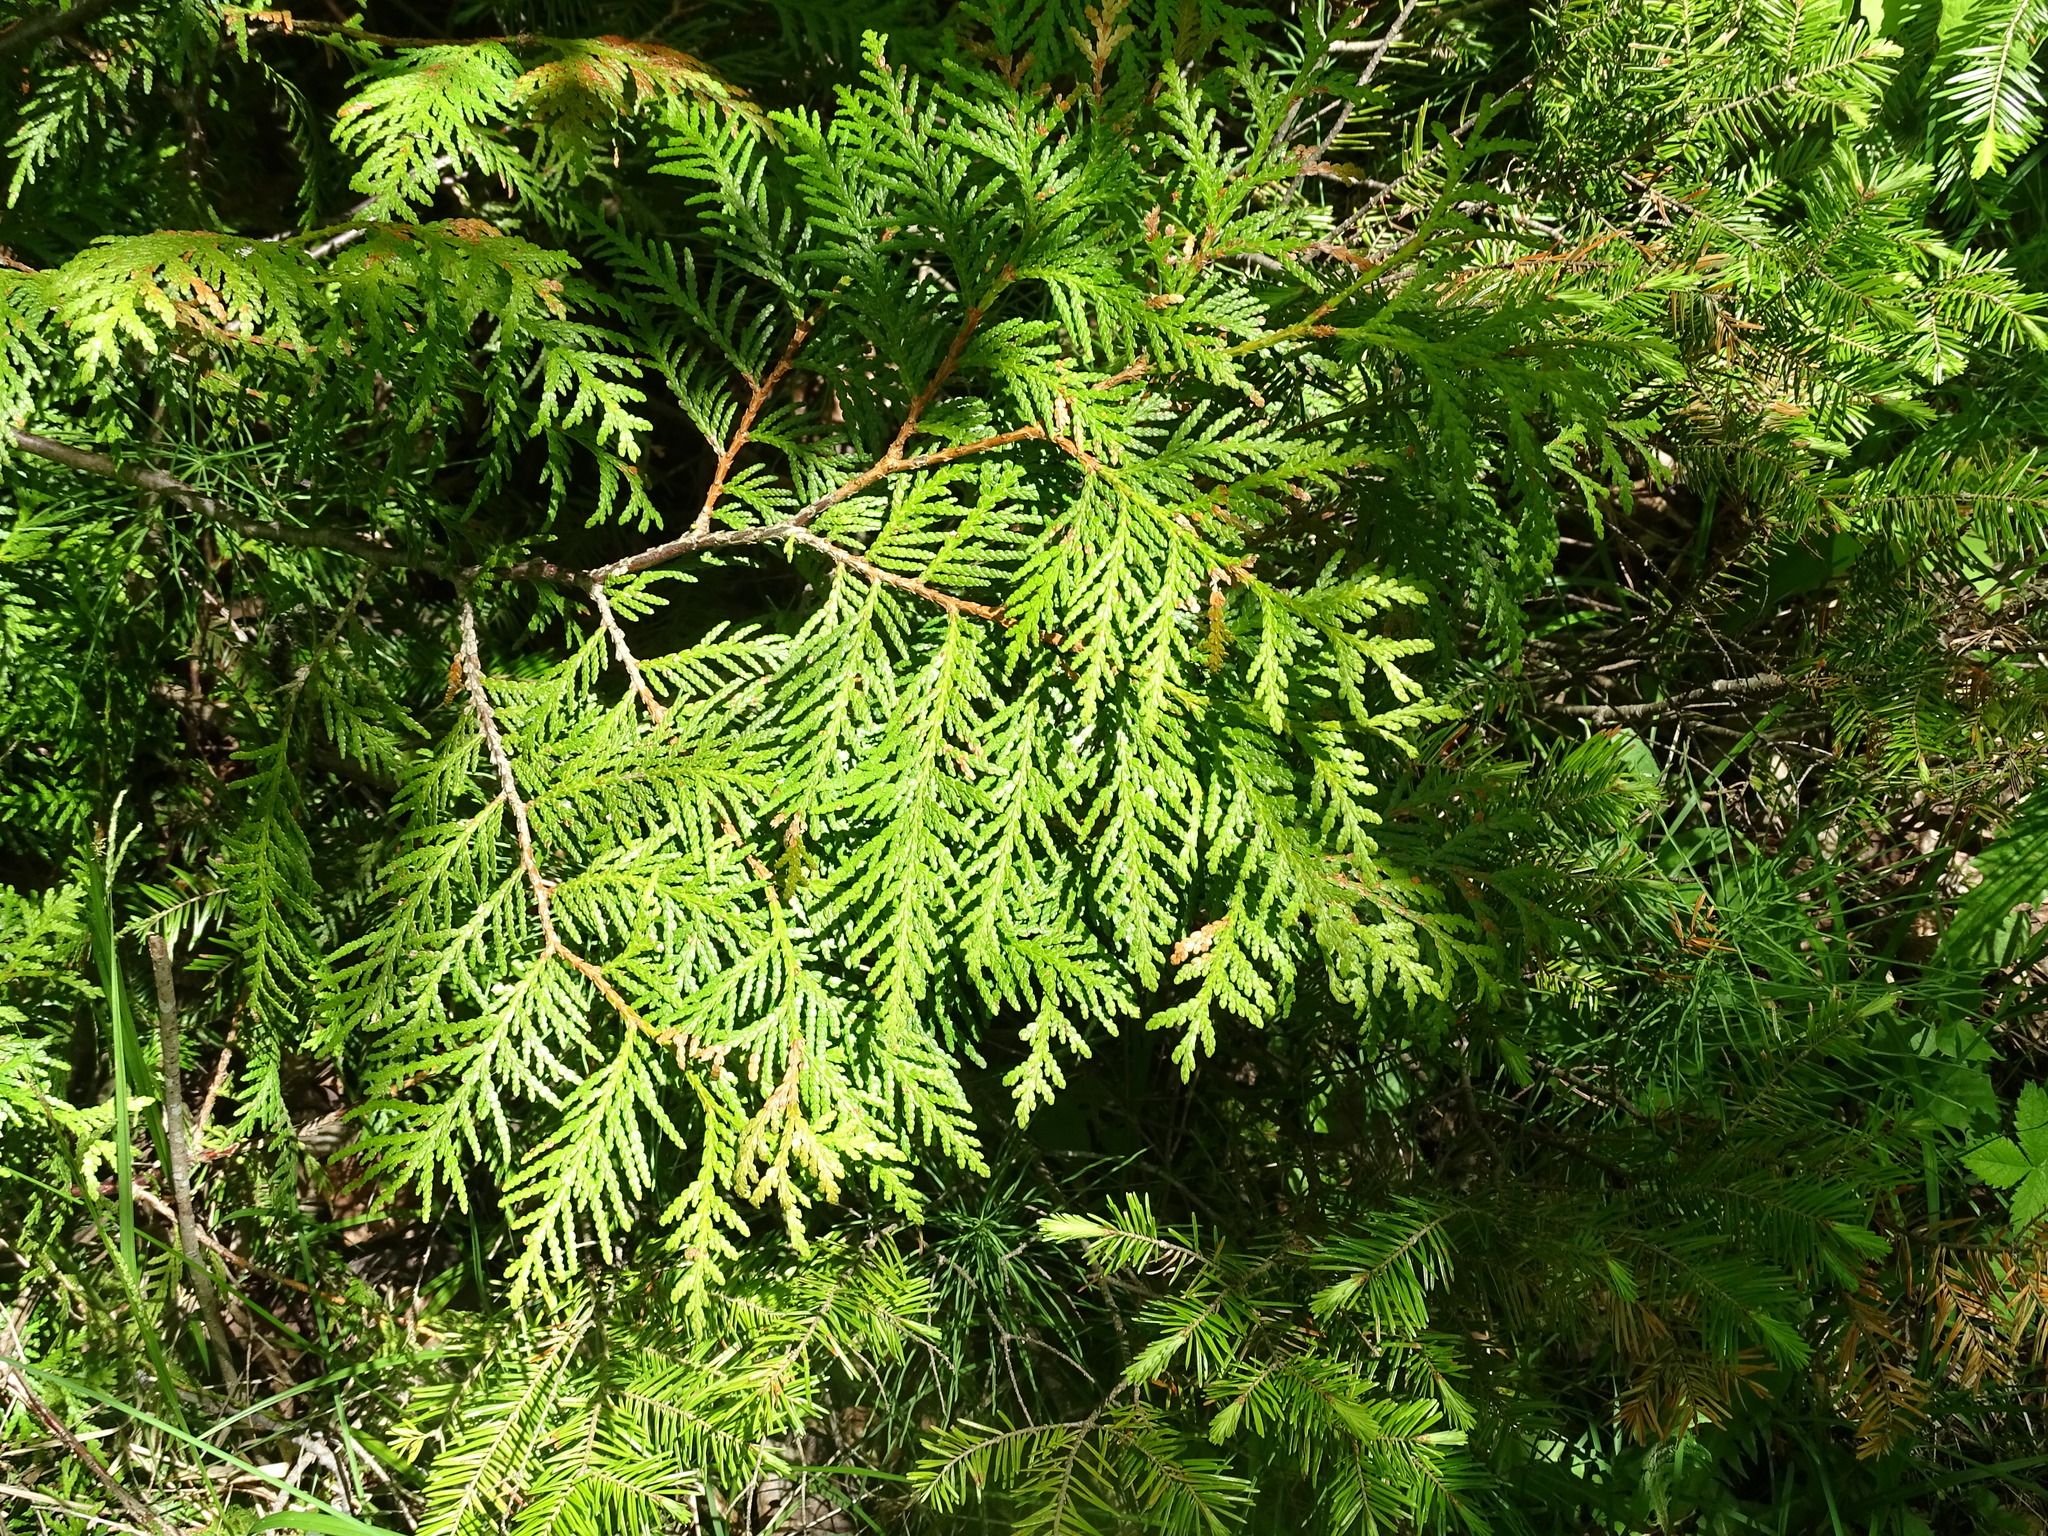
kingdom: Plantae
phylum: Tracheophyta
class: Pinopsida
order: Pinales
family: Cupressaceae
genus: Thuja
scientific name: Thuja occidentalis
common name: Northern white-cedar
